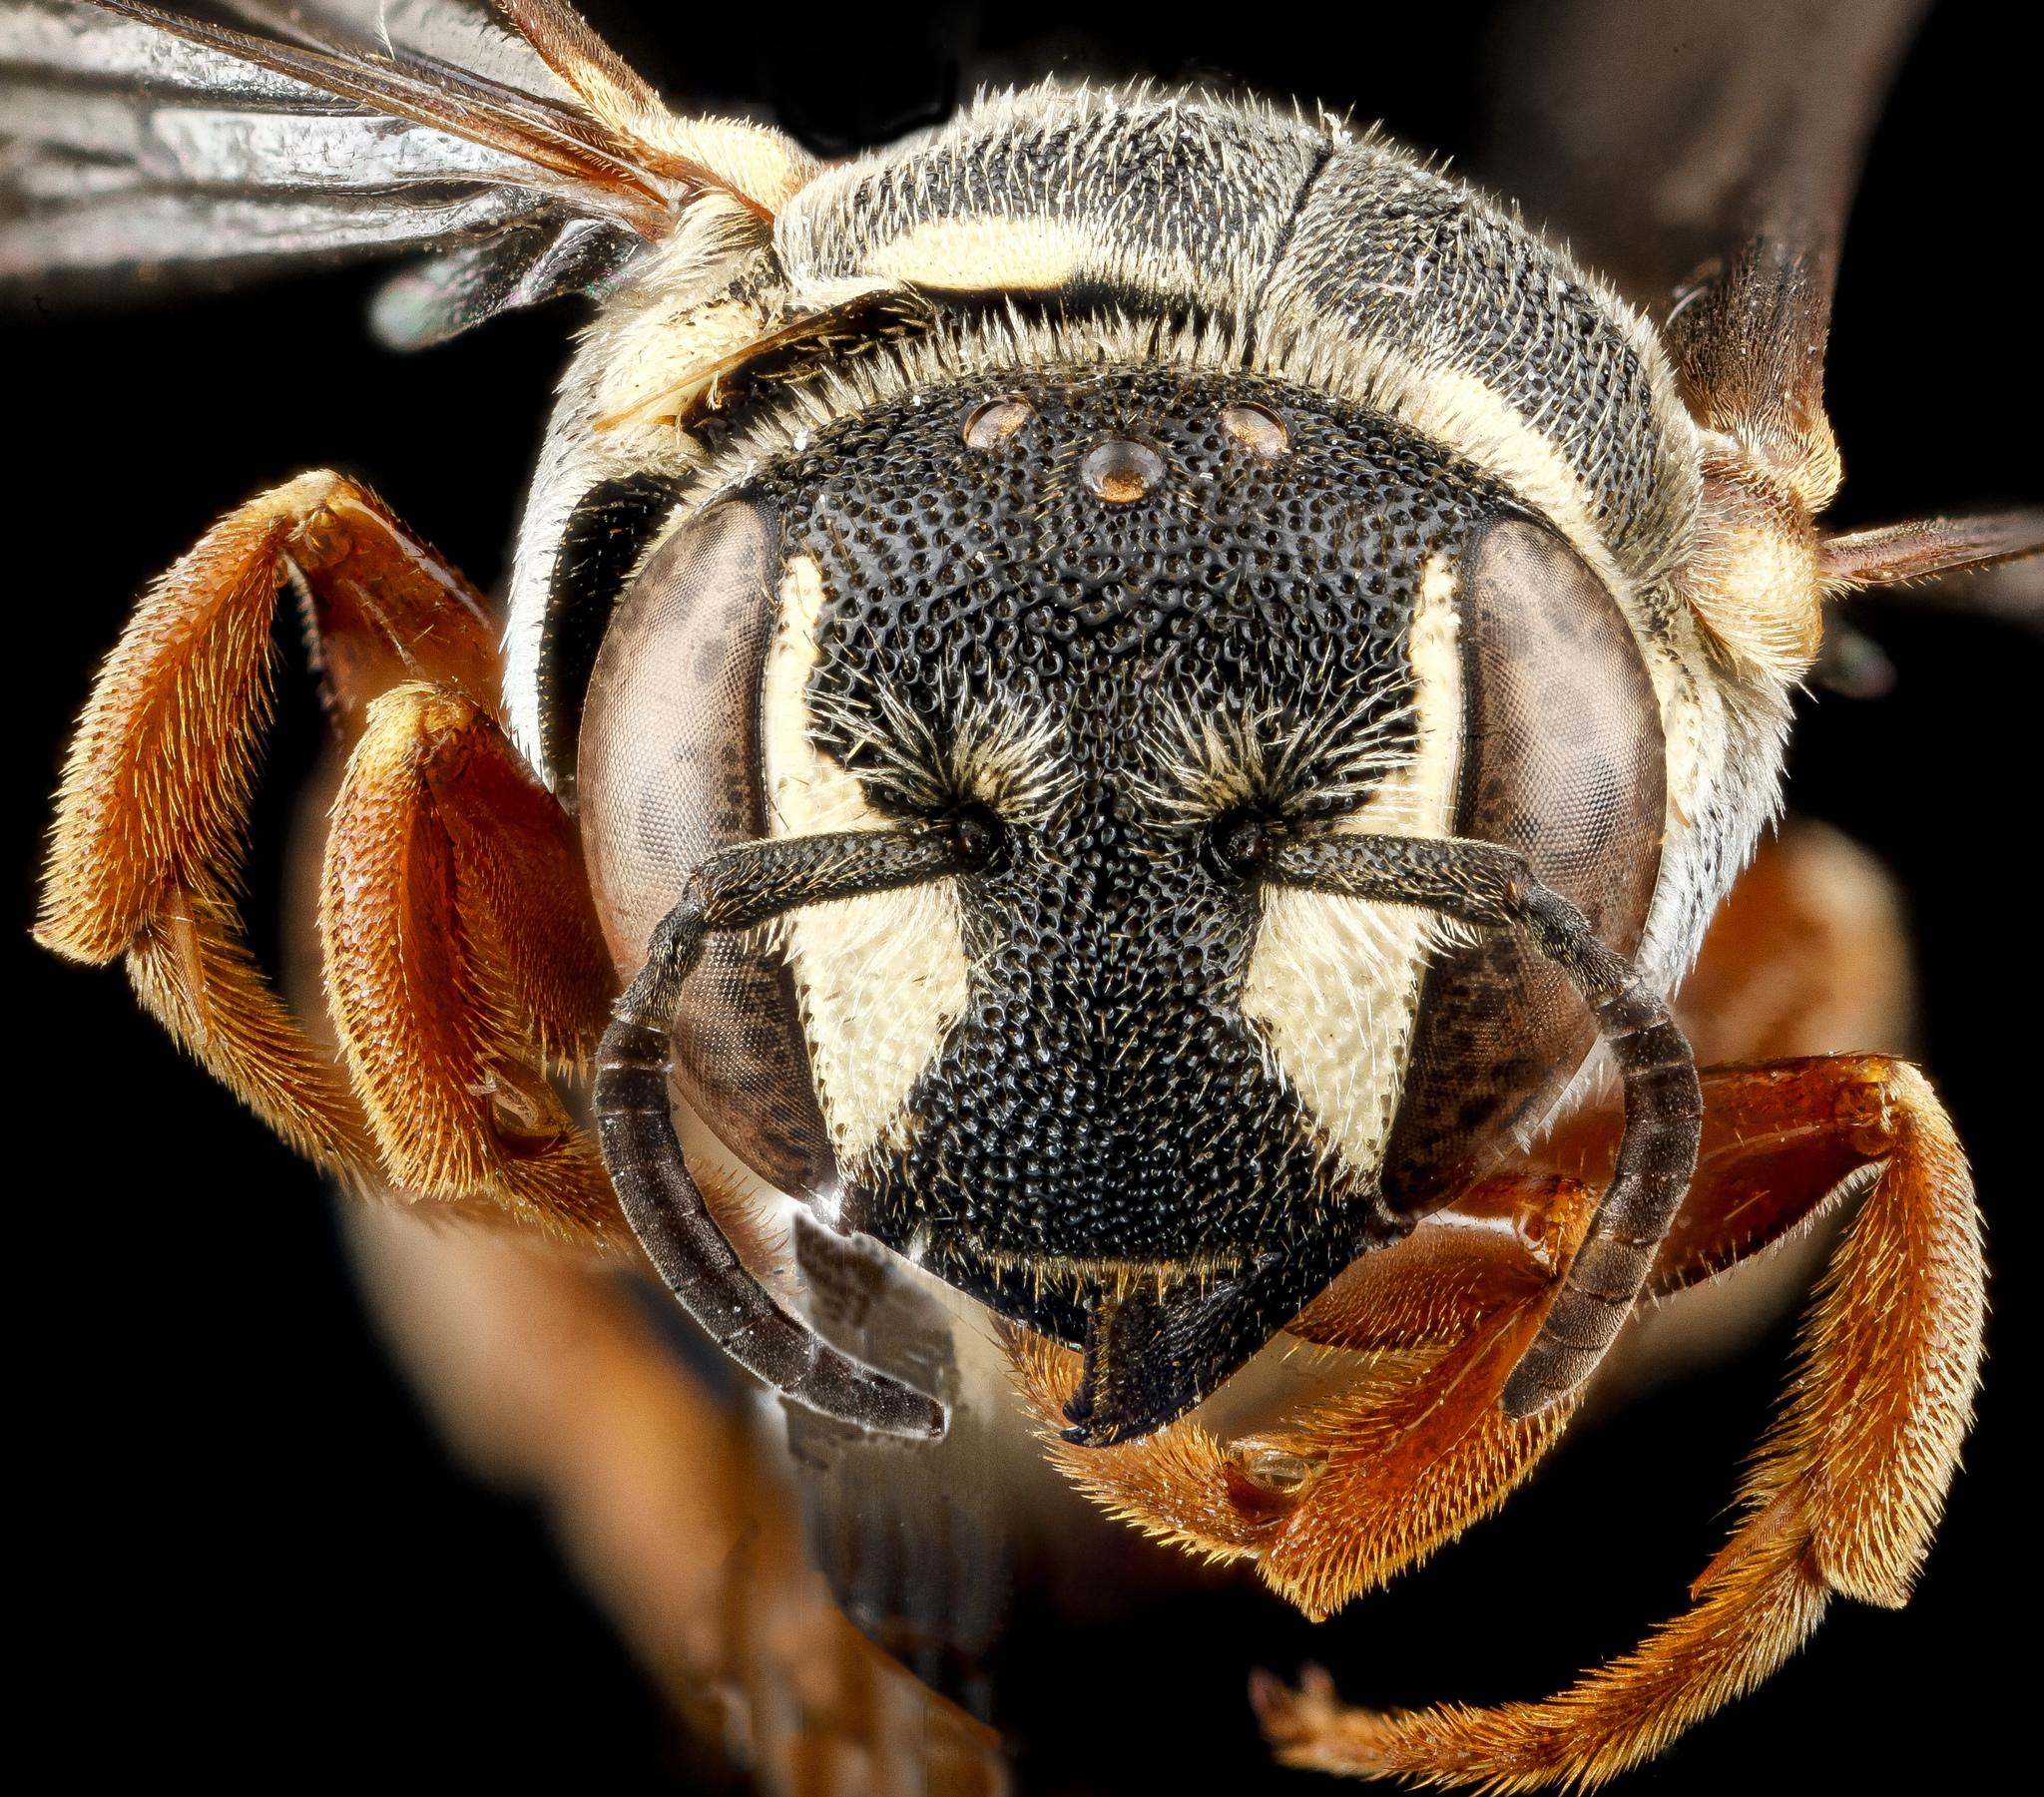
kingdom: Animalia
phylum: Arthropoda
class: Insecta
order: Hymenoptera
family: Megachilidae
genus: Dianthidium
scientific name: Dianthidium concinnum
